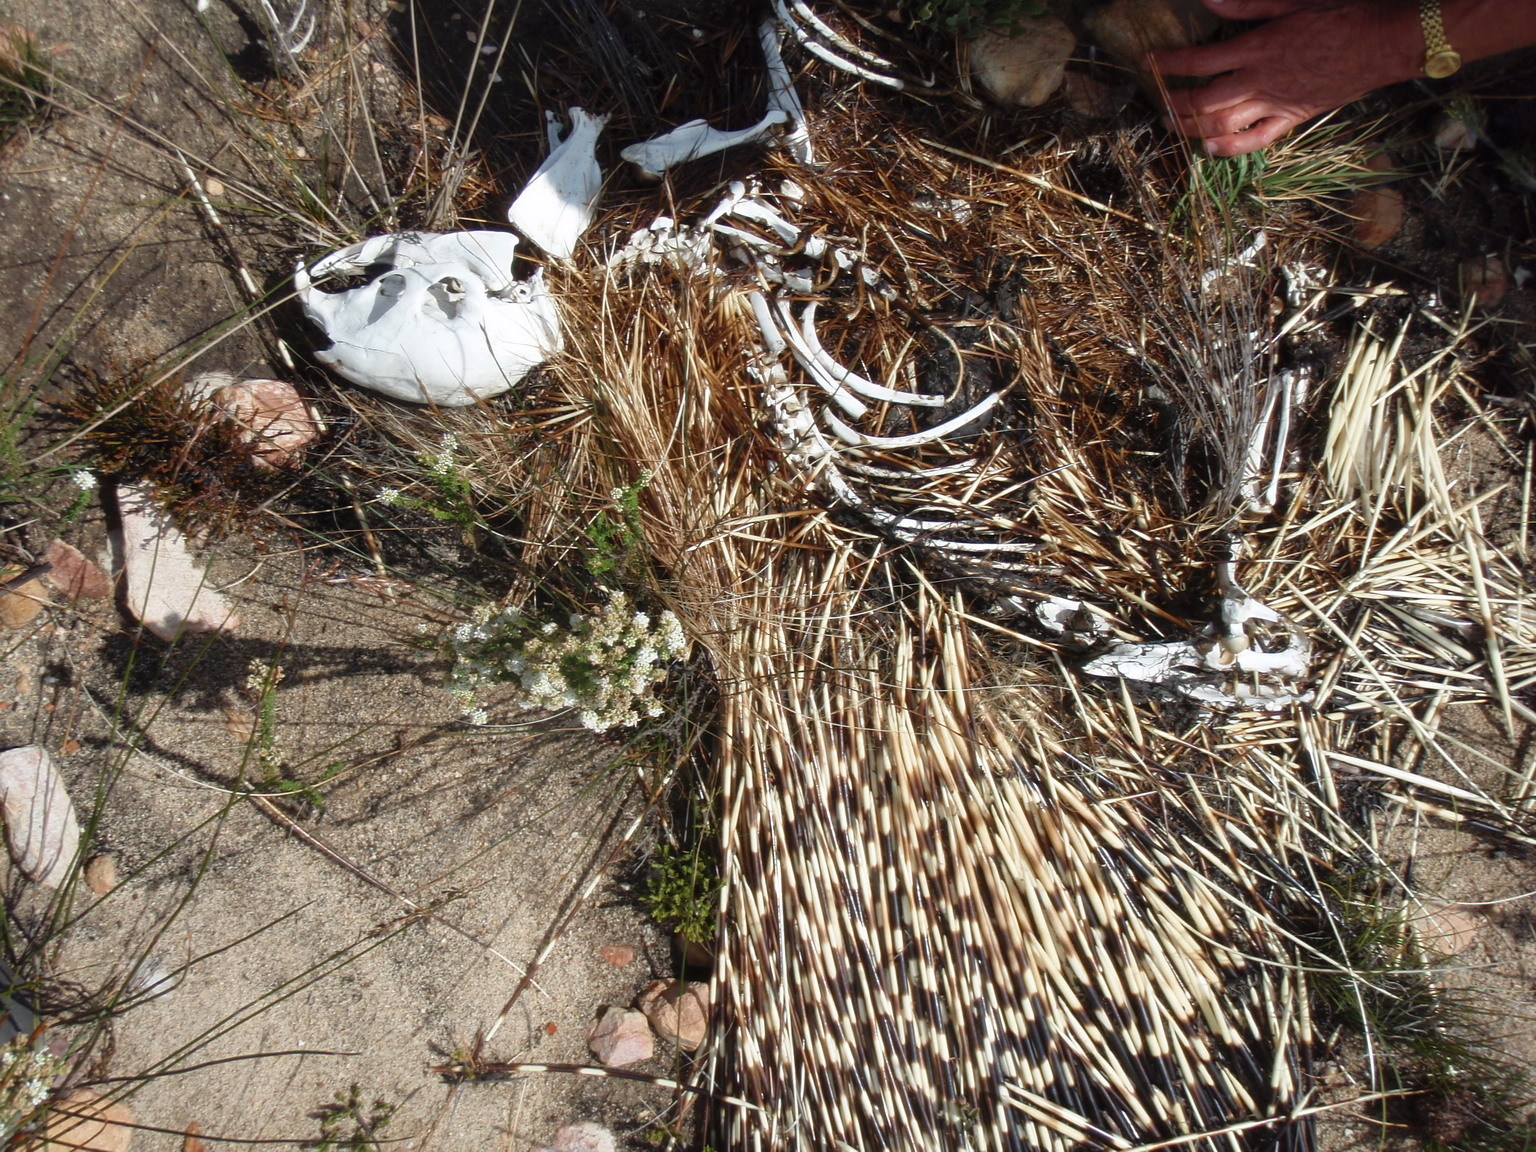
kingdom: Animalia
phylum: Chordata
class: Mammalia
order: Rodentia
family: Hystricidae
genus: Hystrix
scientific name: Hystrix africaeaustralis
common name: Cape porcupine
